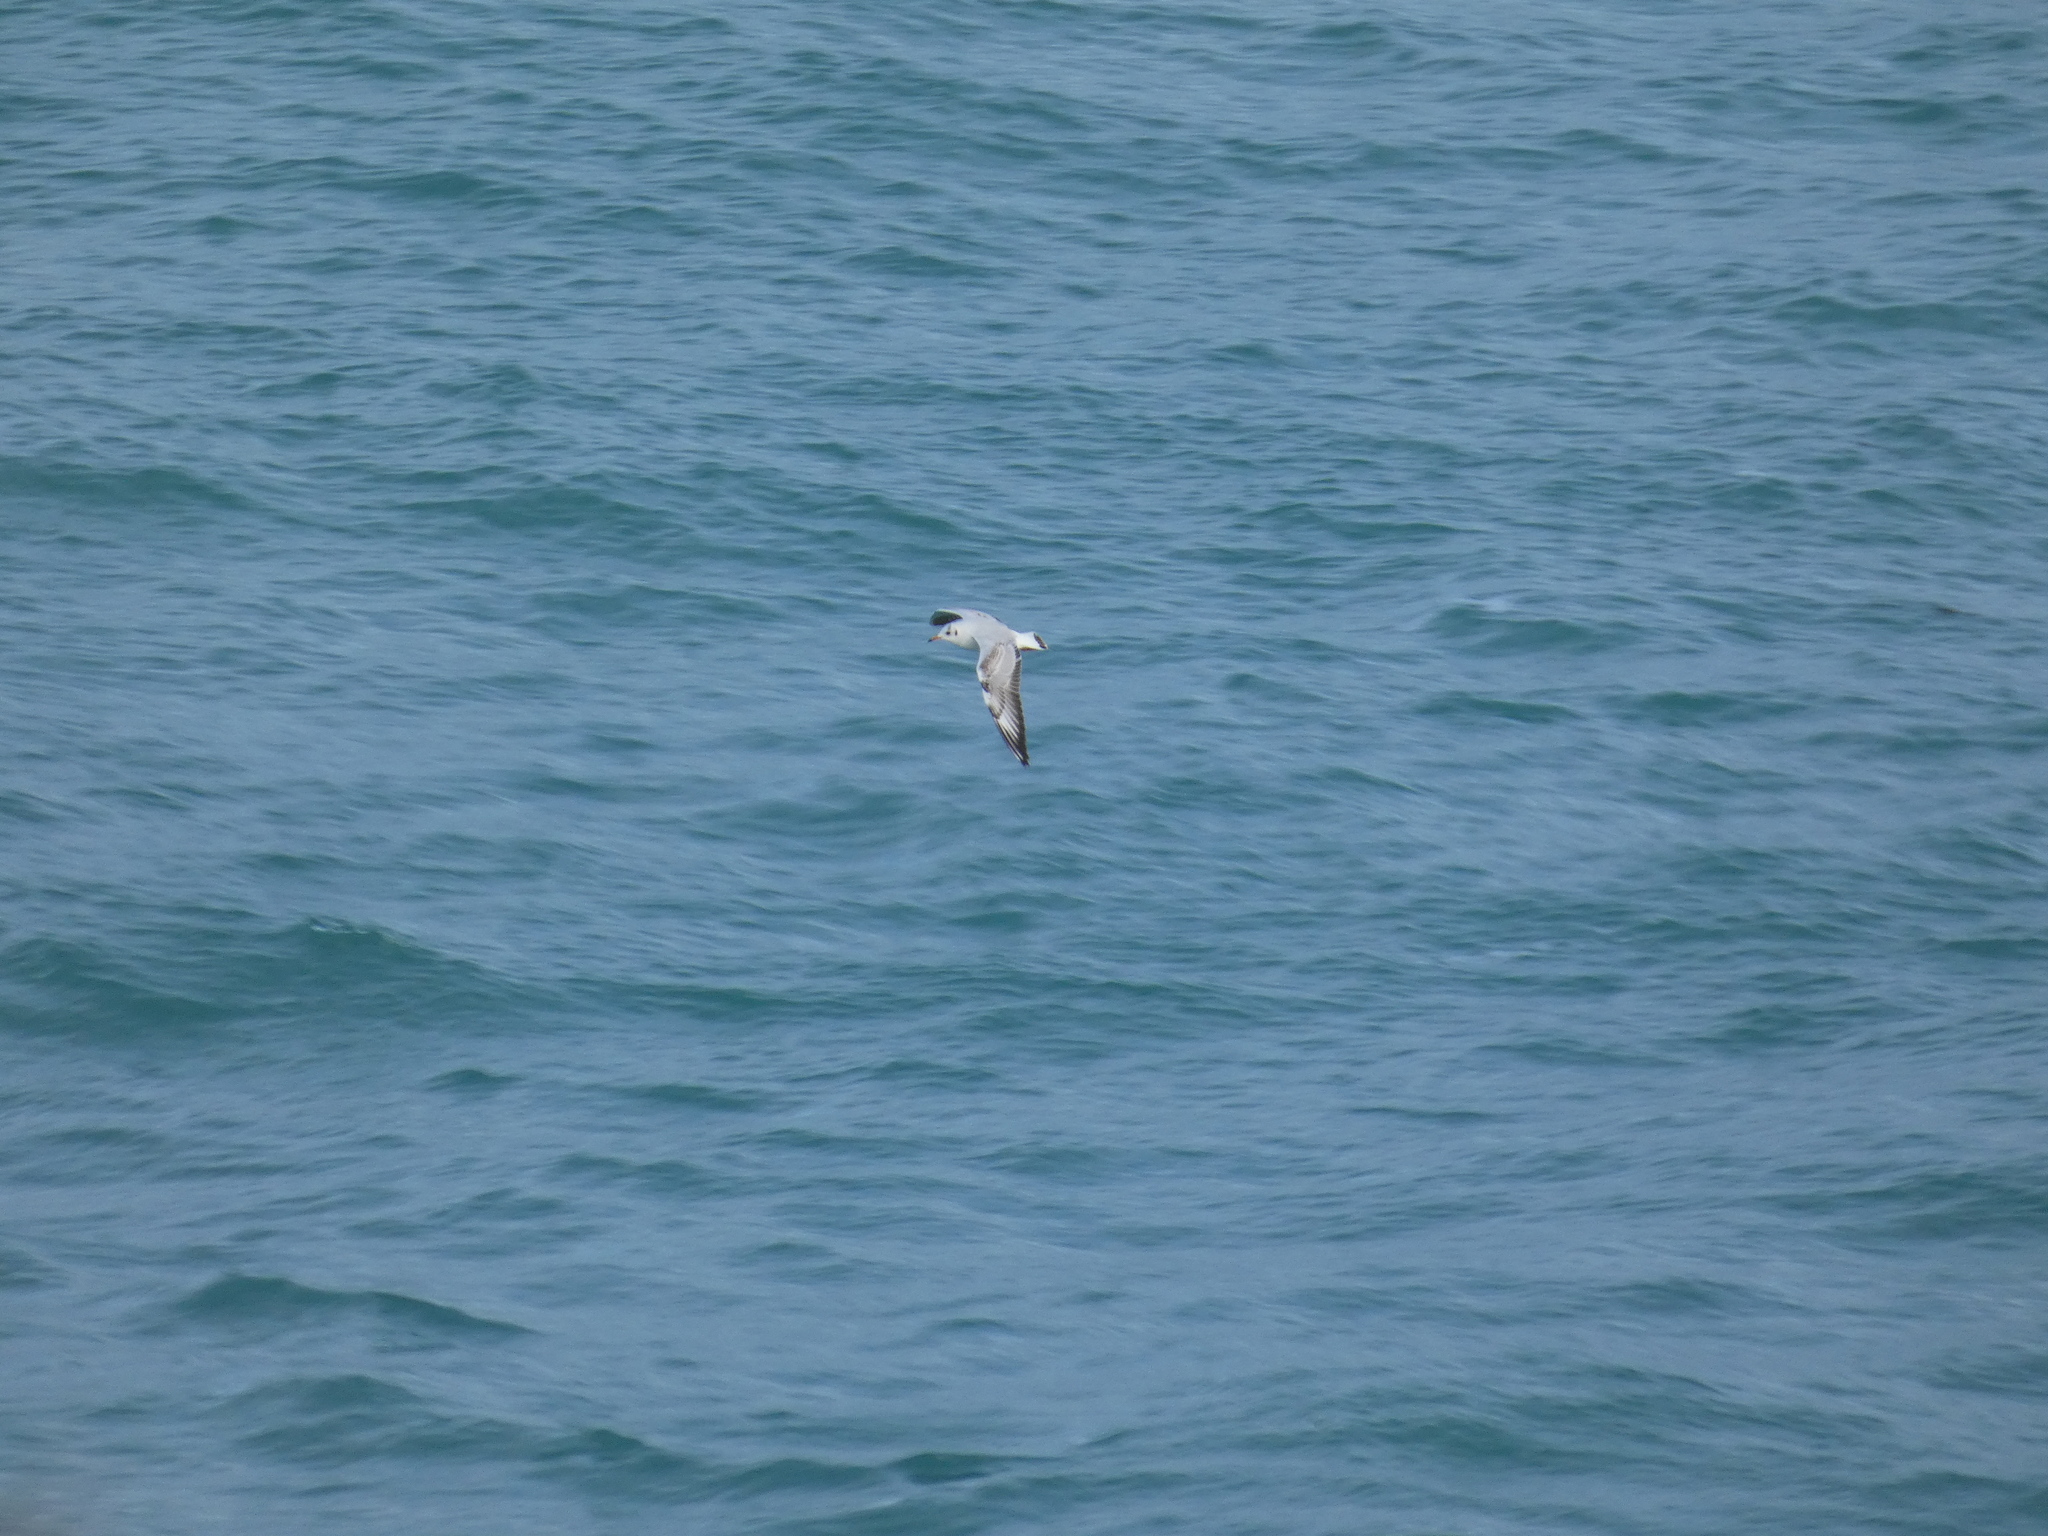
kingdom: Animalia
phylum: Chordata
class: Aves
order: Charadriiformes
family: Laridae
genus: Chroicocephalus
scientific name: Chroicocephalus ridibundus
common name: Black-headed gull
